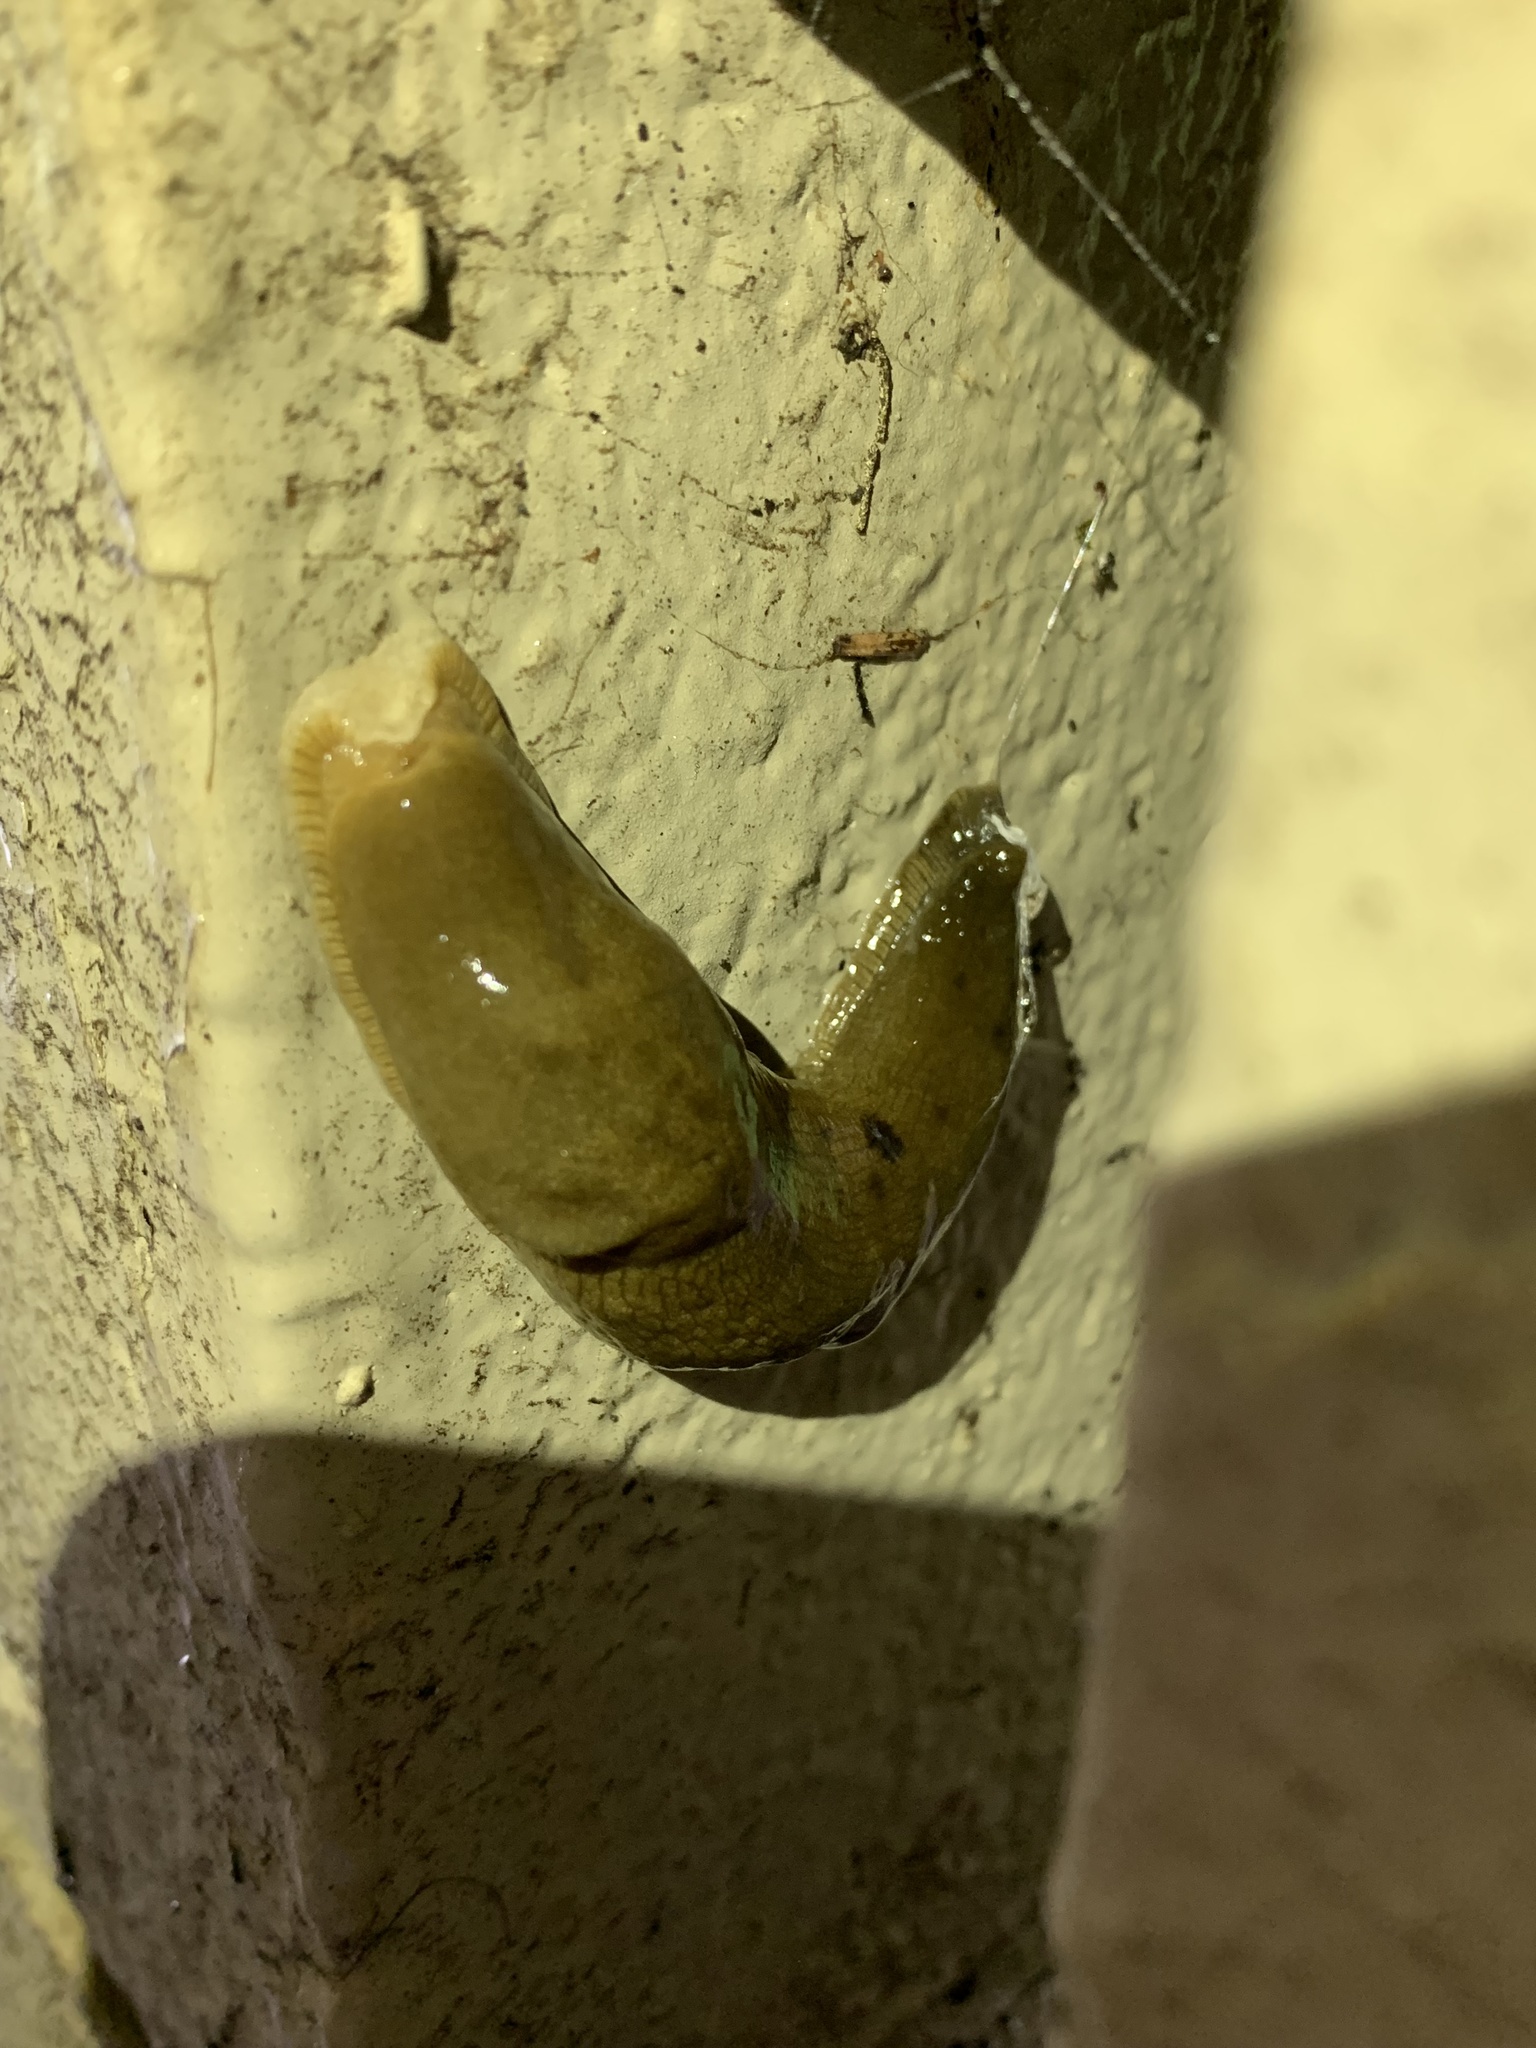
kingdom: Animalia
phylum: Mollusca
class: Gastropoda
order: Stylommatophora
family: Ariolimacidae
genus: Ariolimax
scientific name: Ariolimax columbianus
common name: Pacific banana slug
